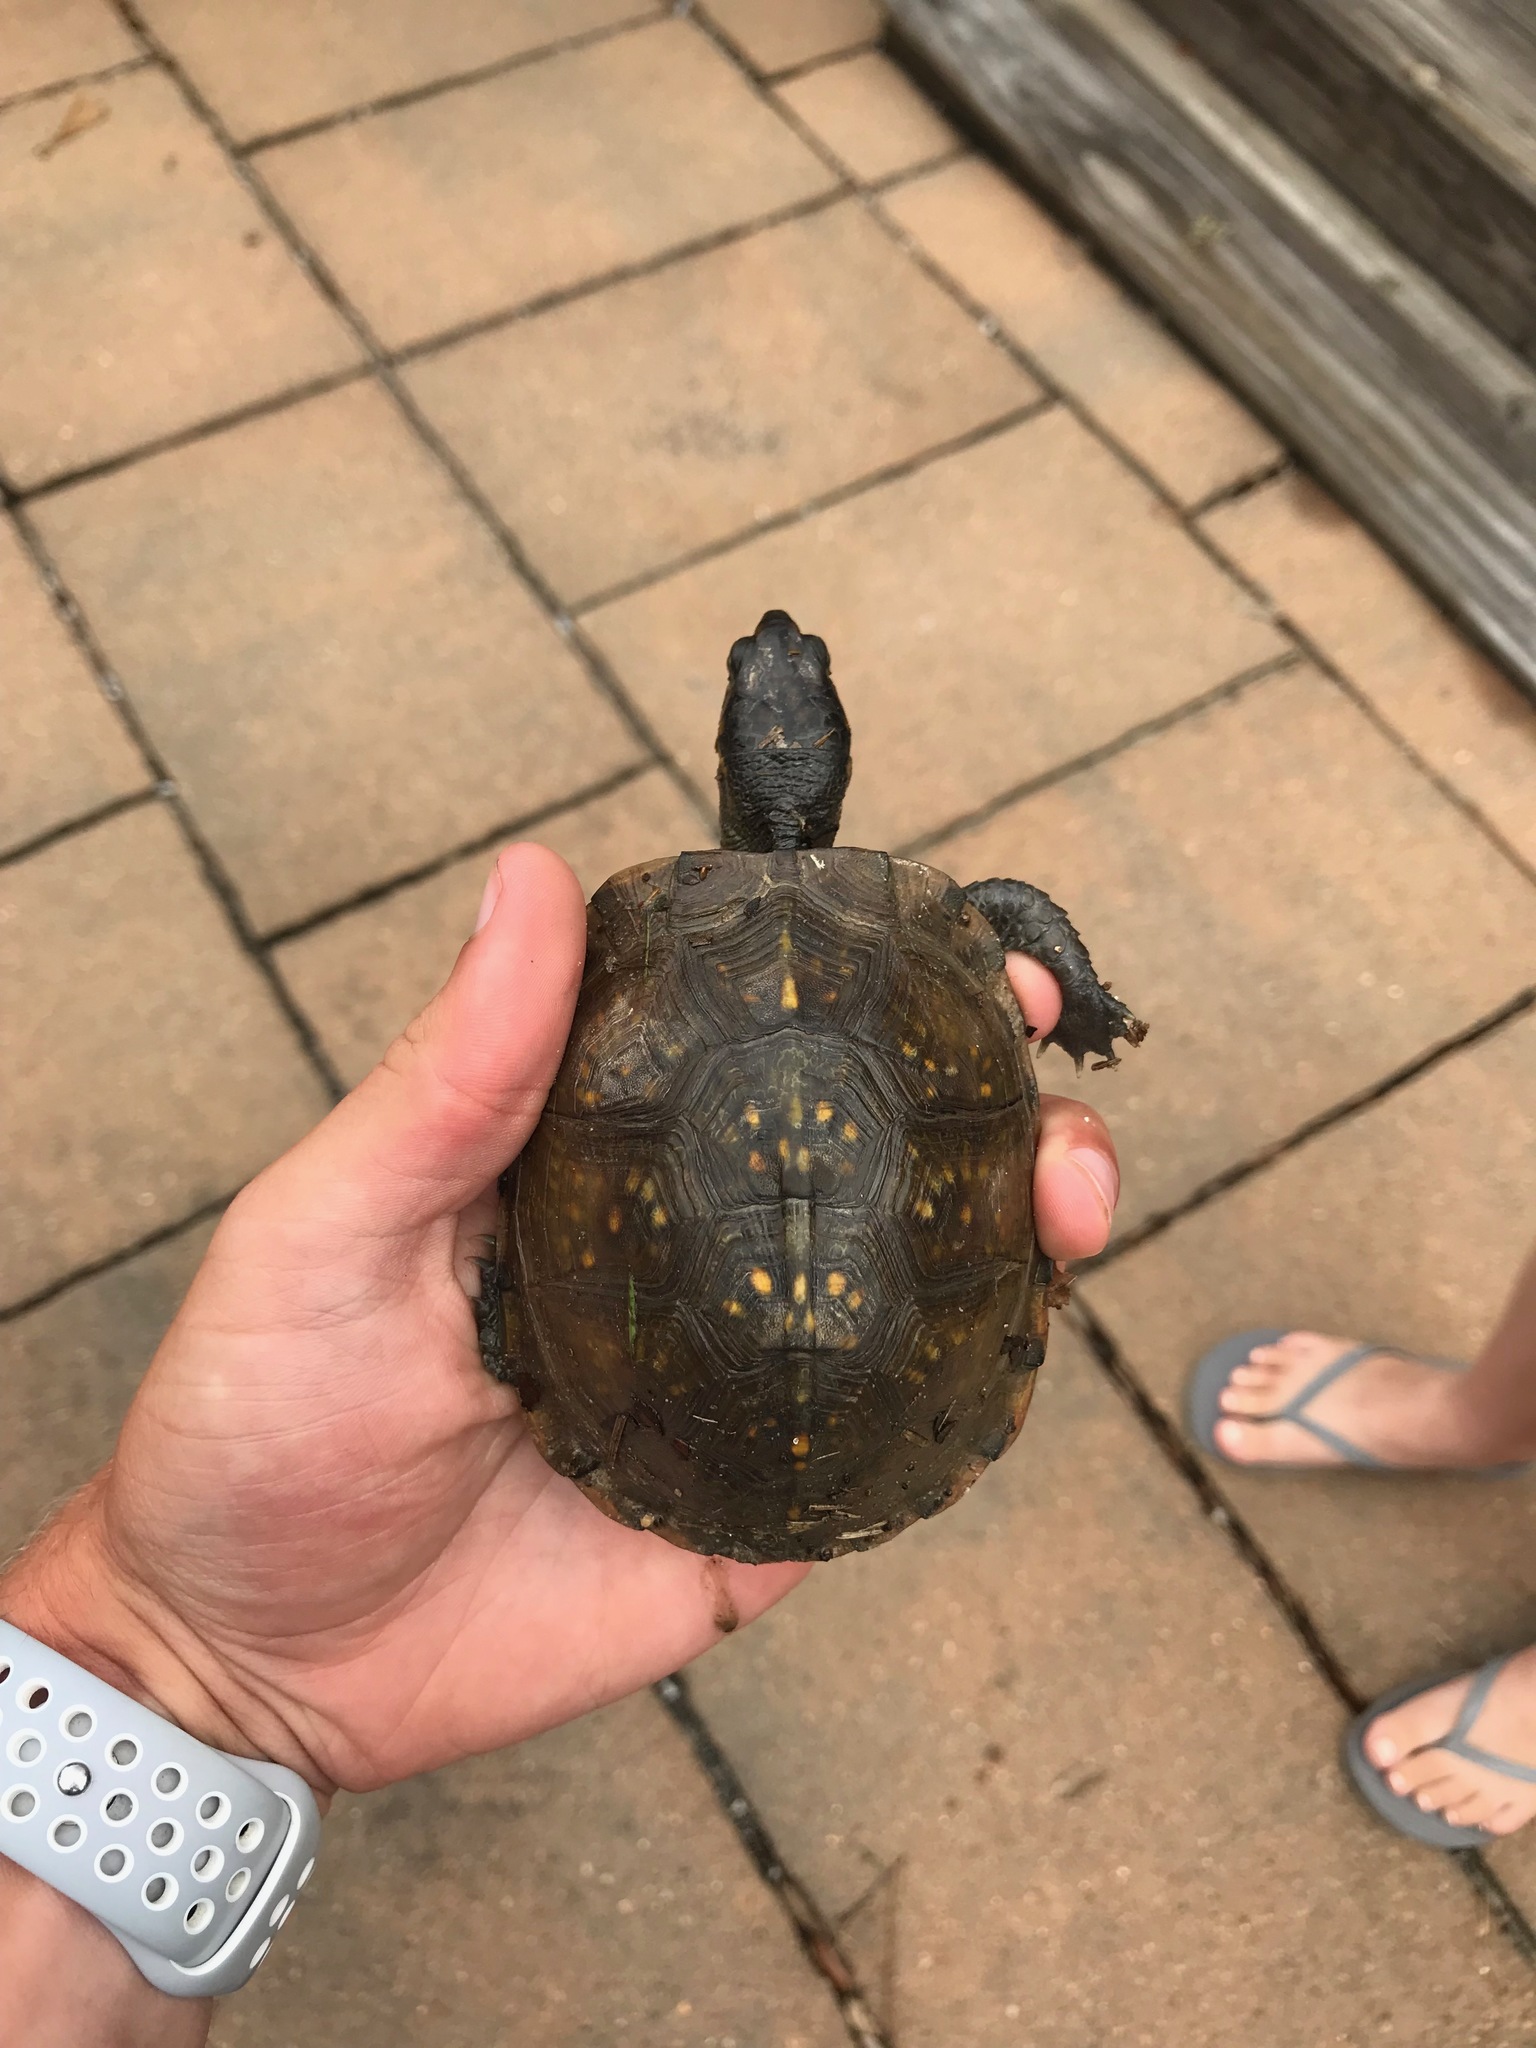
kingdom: Animalia
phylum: Chordata
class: Testudines
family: Emydidae
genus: Terrapene
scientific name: Terrapene carolina
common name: Common box turtle
